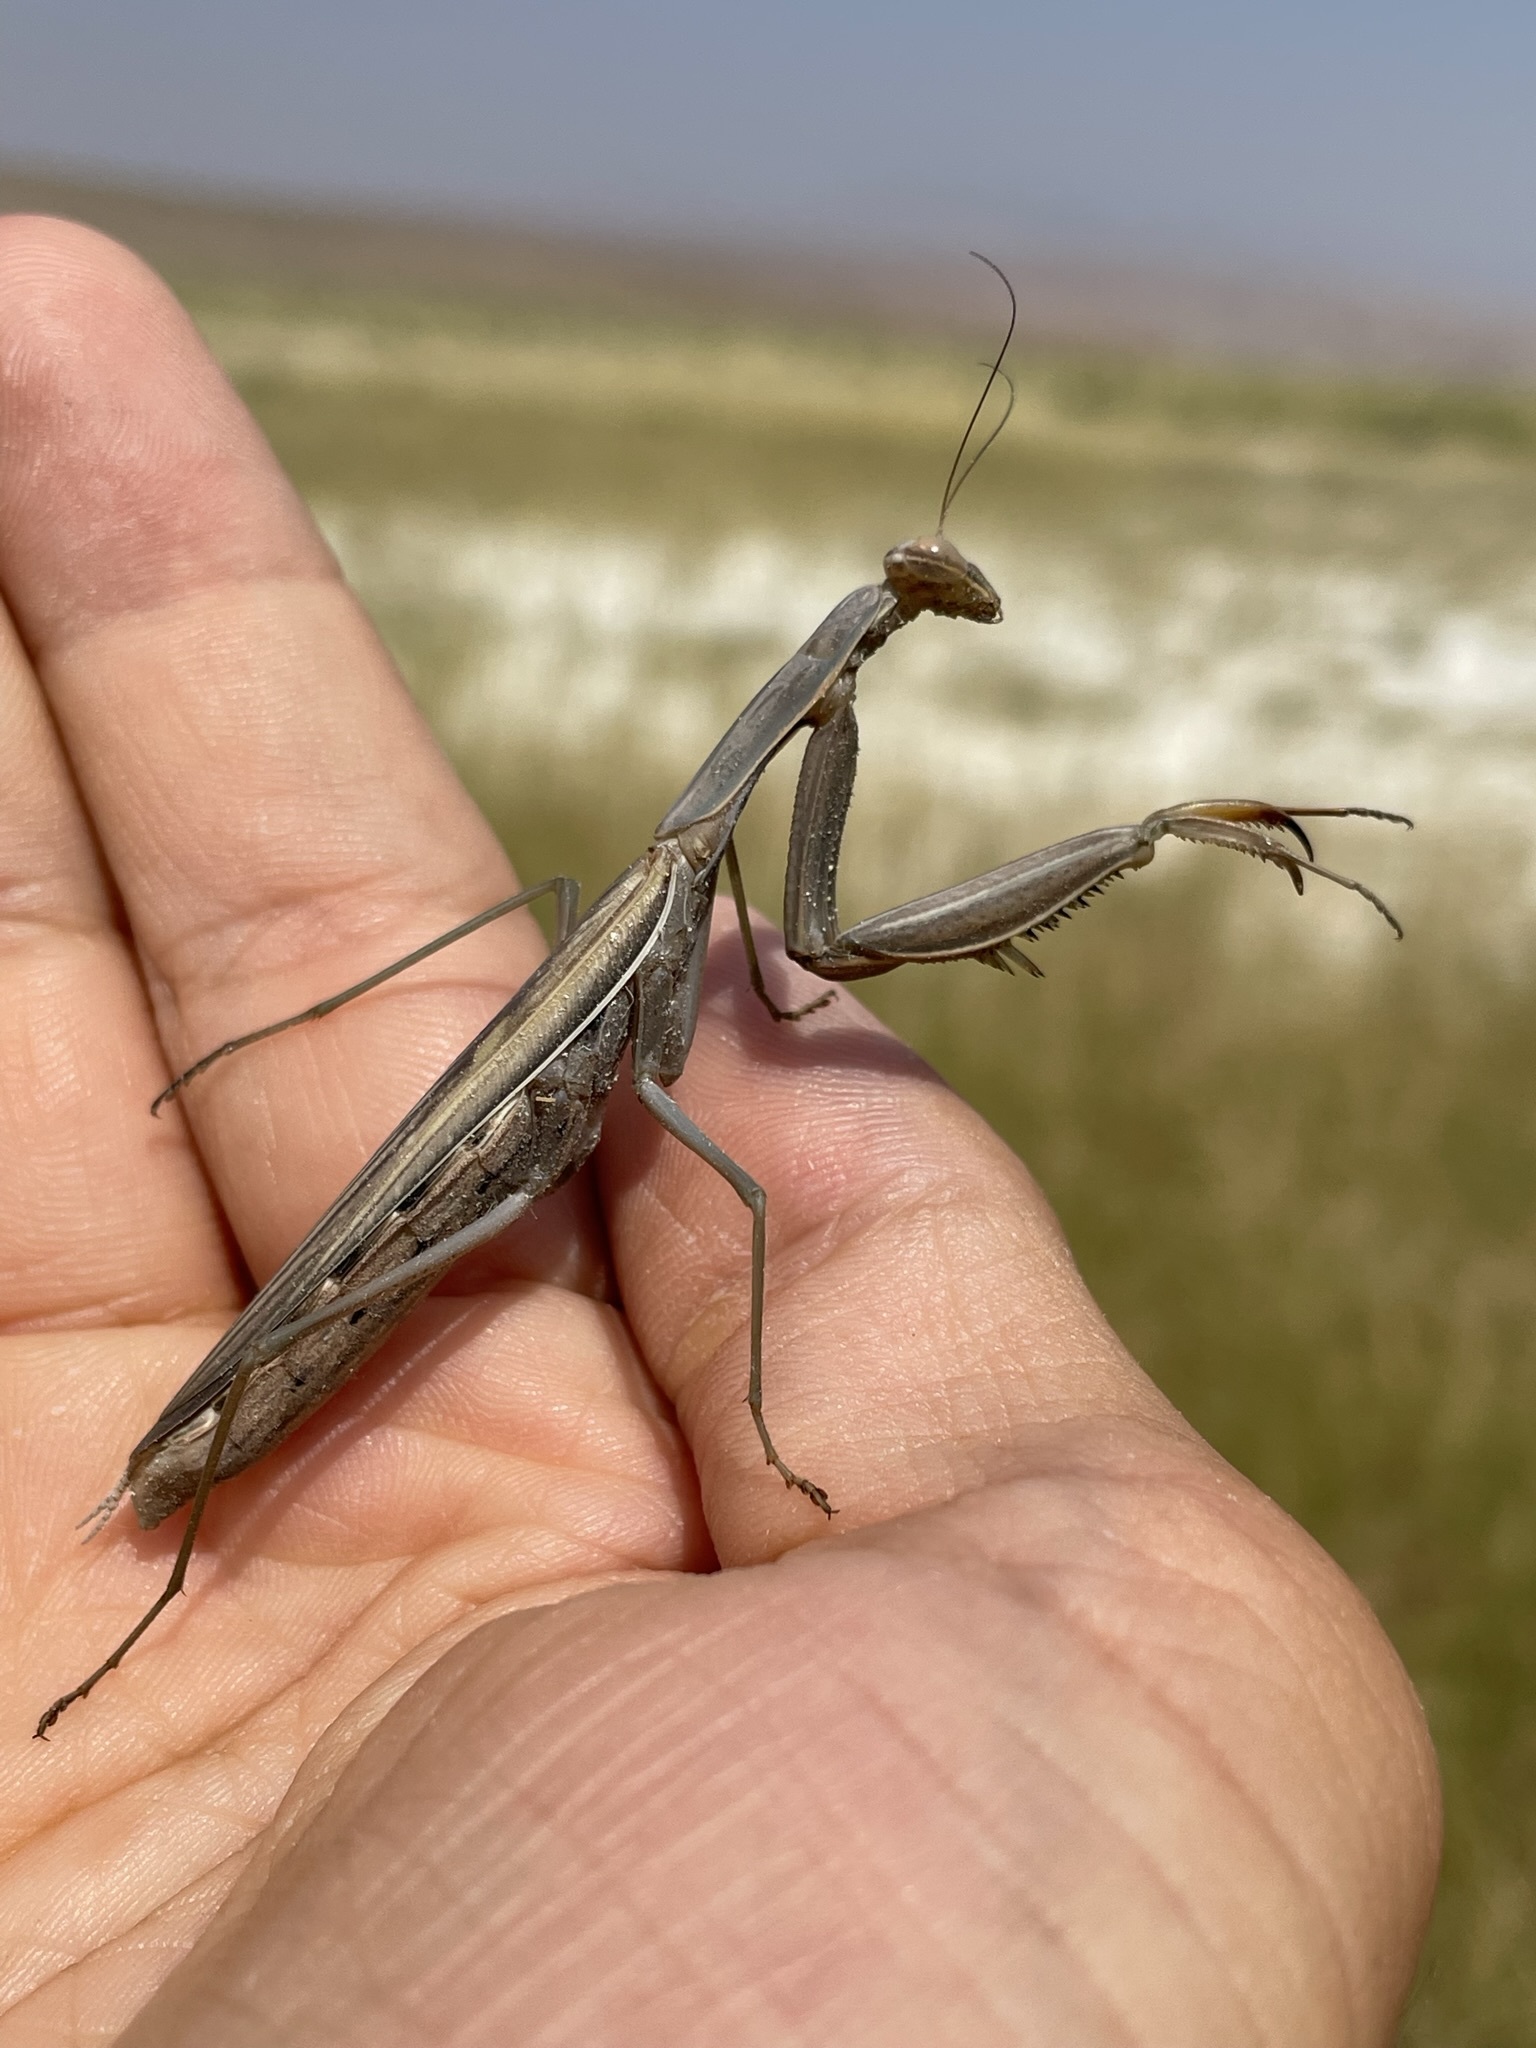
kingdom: Animalia
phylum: Arthropoda
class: Insecta
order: Mantodea
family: Mantidae
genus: Mantis
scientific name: Mantis religiosa
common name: Praying mantis
